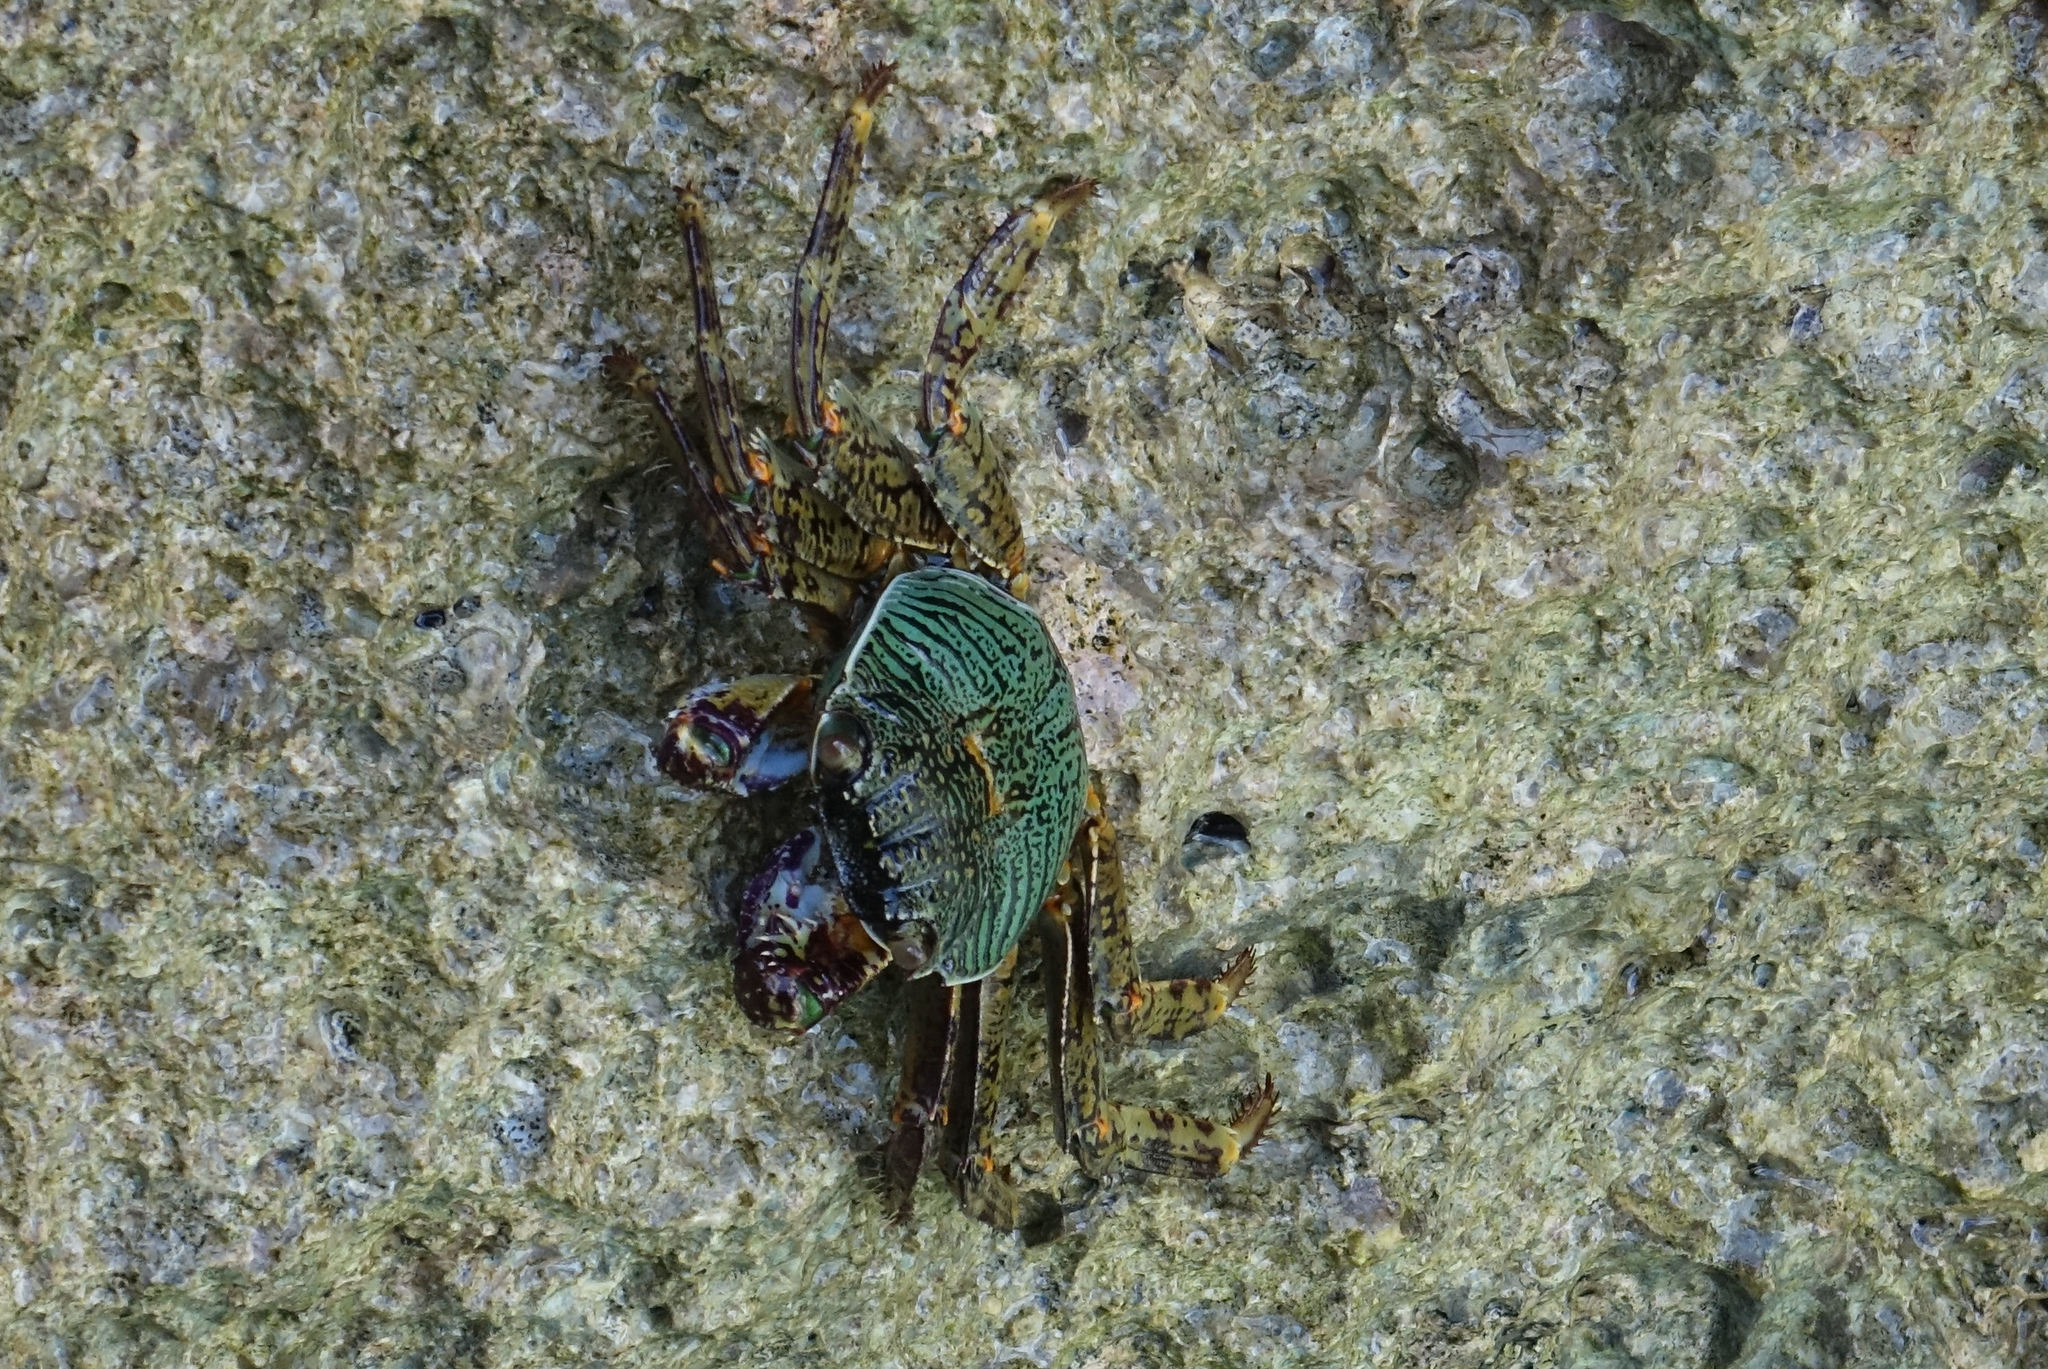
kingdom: Animalia
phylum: Arthropoda
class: Malacostraca
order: Decapoda
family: Grapsidae
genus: Grapsus
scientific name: Grapsus albolineatus
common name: Mottled lightfoot crab
